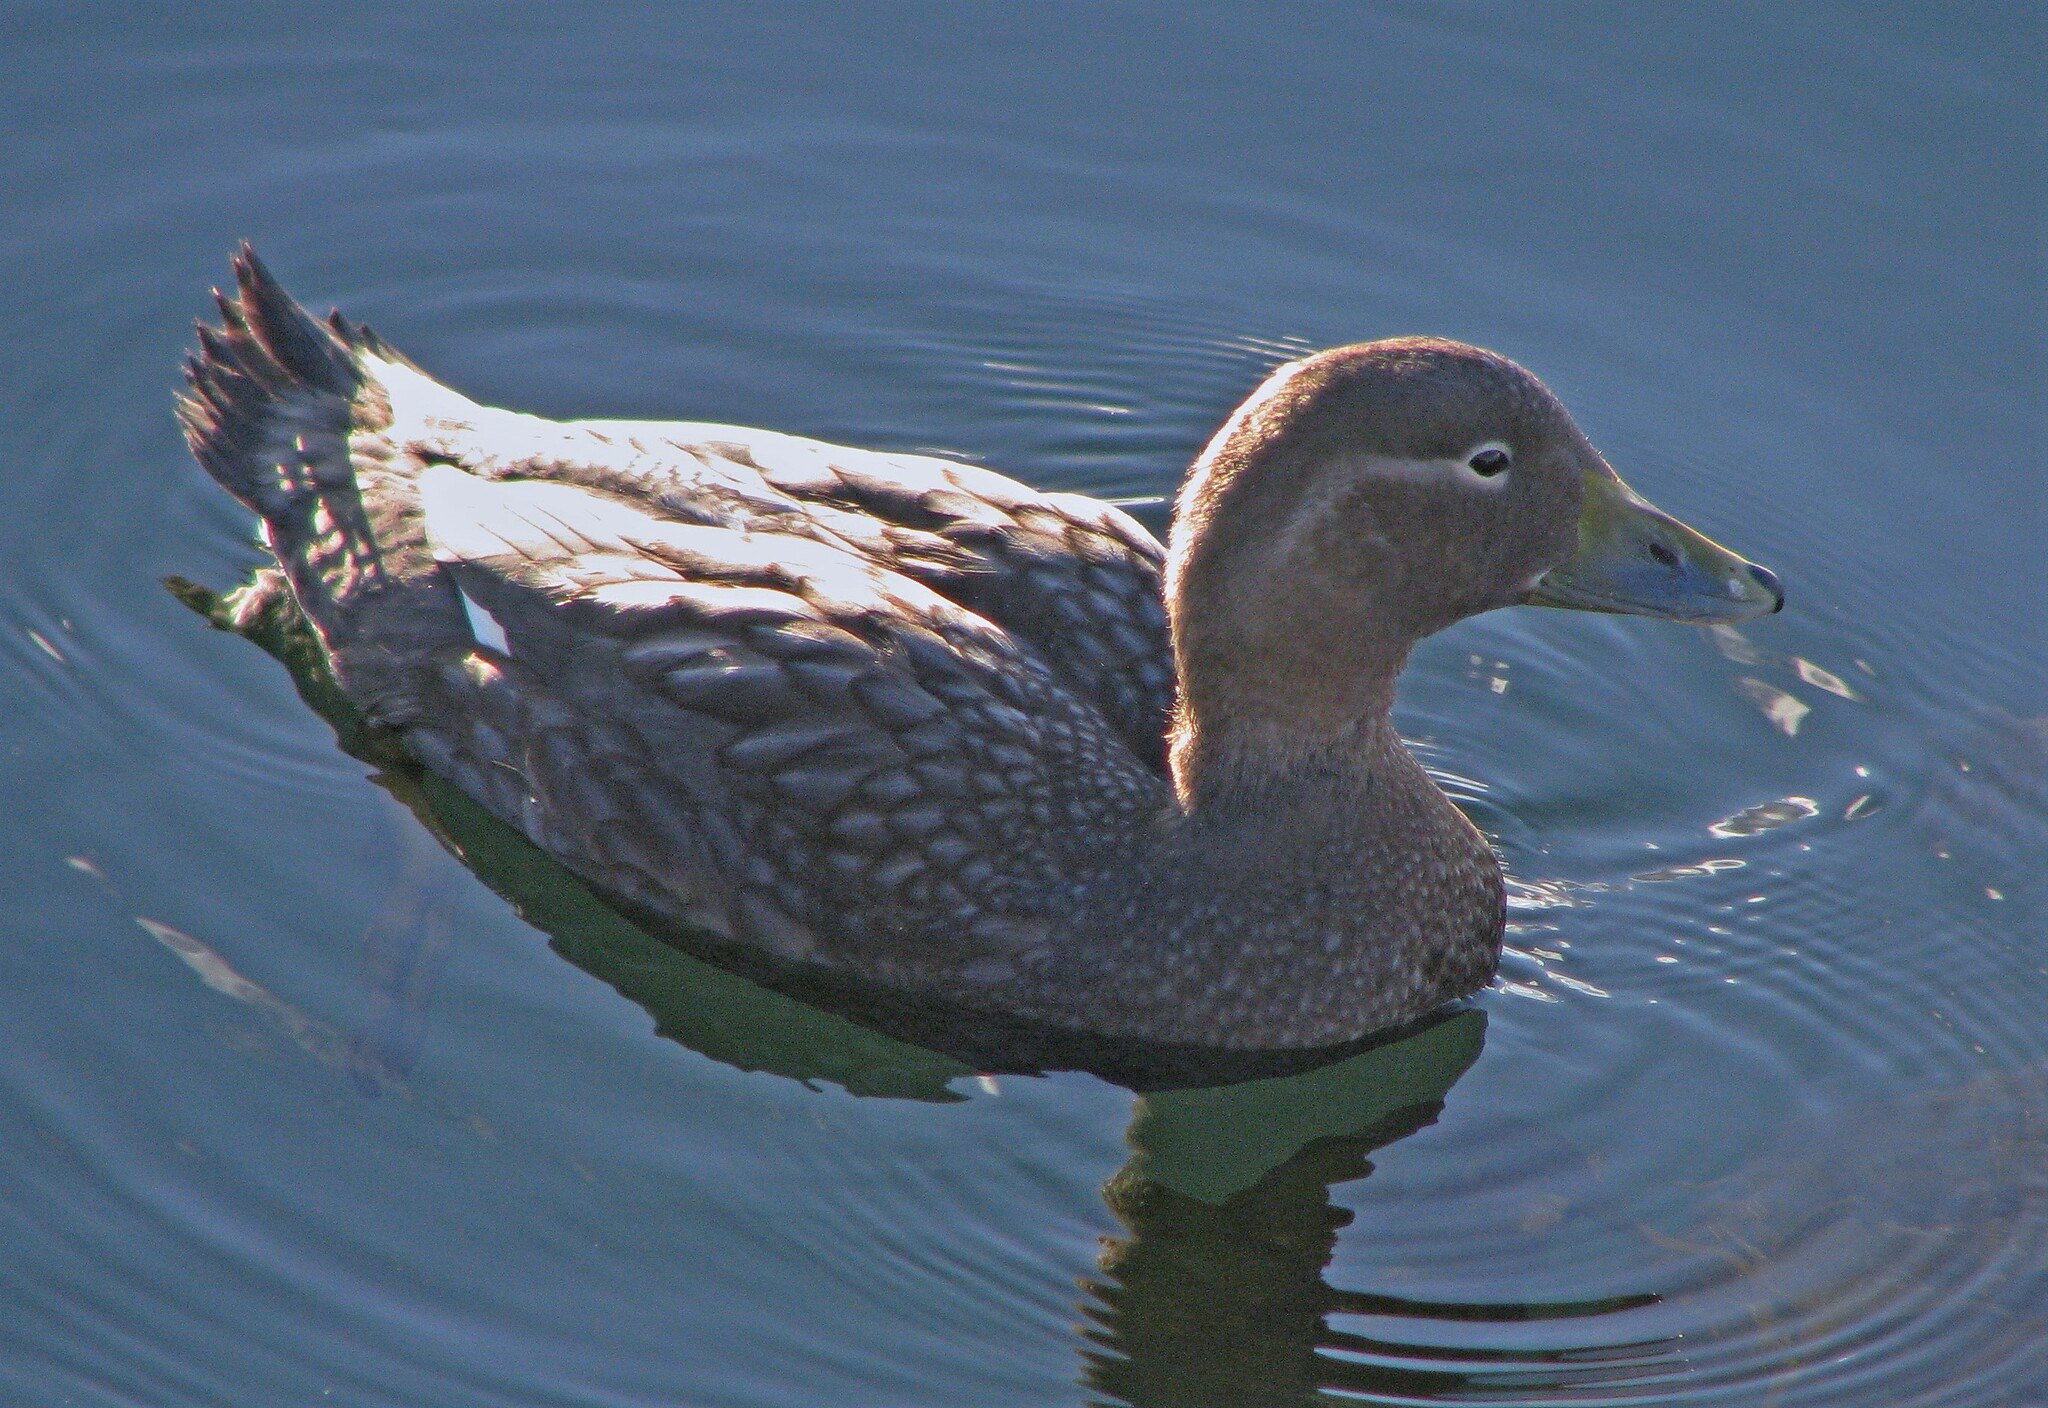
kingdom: Animalia
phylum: Chordata
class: Aves
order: Anseriformes
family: Anatidae
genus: Tachyeres
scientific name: Tachyeres patachonicus
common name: Flying steamer duck
